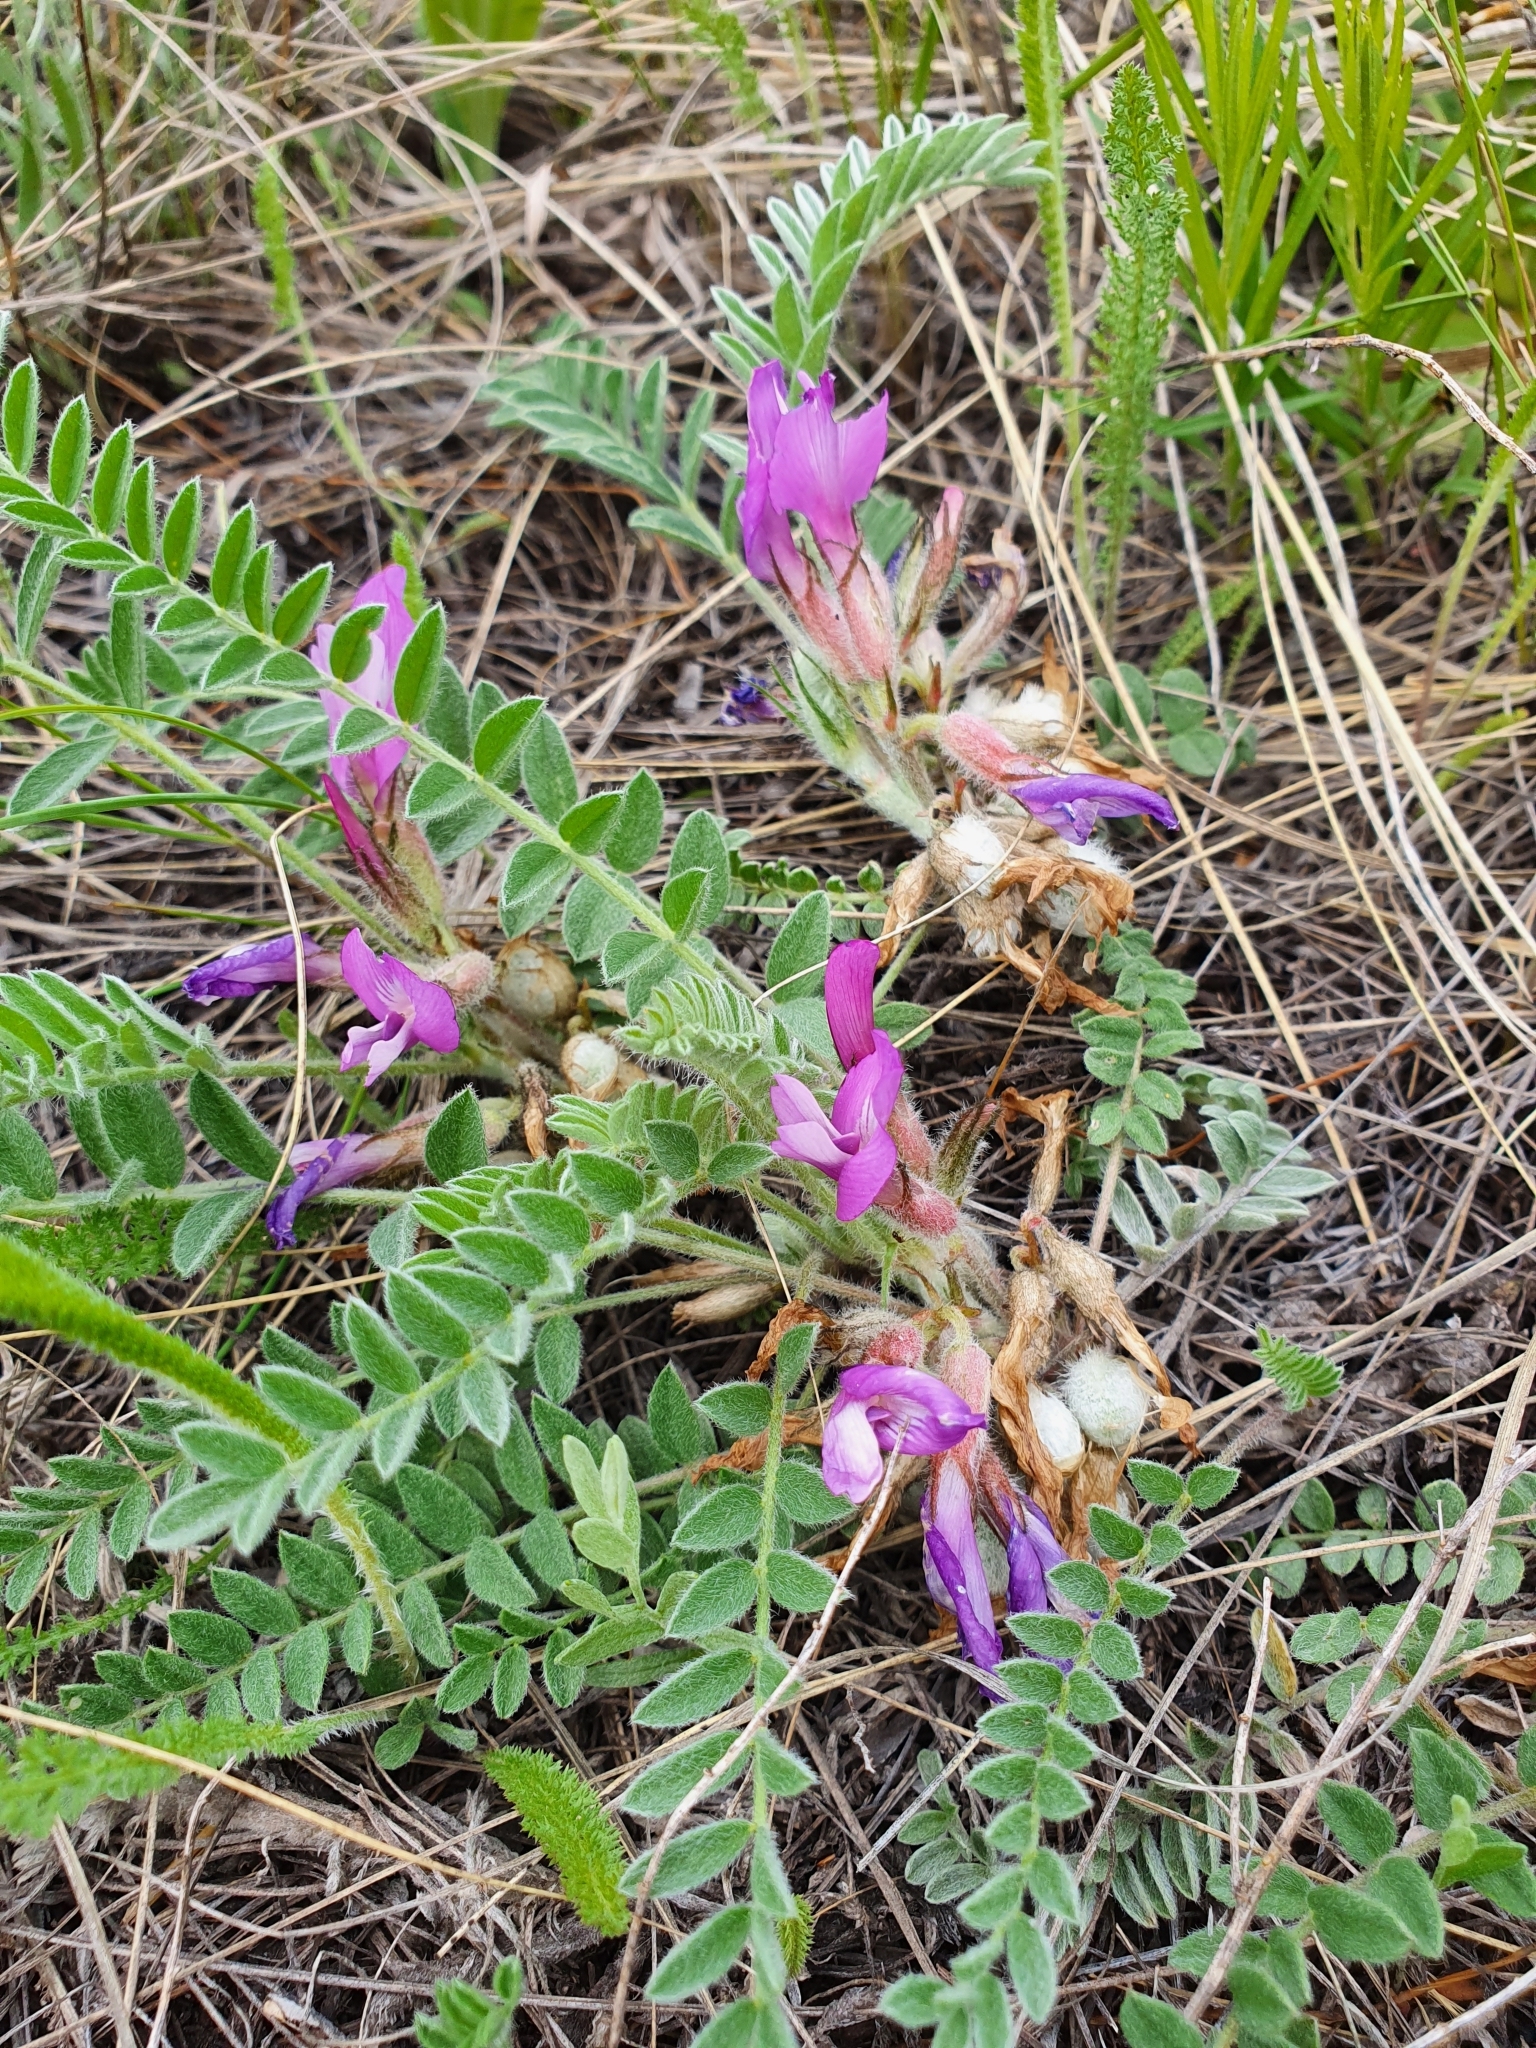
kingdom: Plantae
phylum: Tracheophyta
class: Magnoliopsida
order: Fabales
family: Fabaceae
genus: Astragalus
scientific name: Astragalus testiculatus
